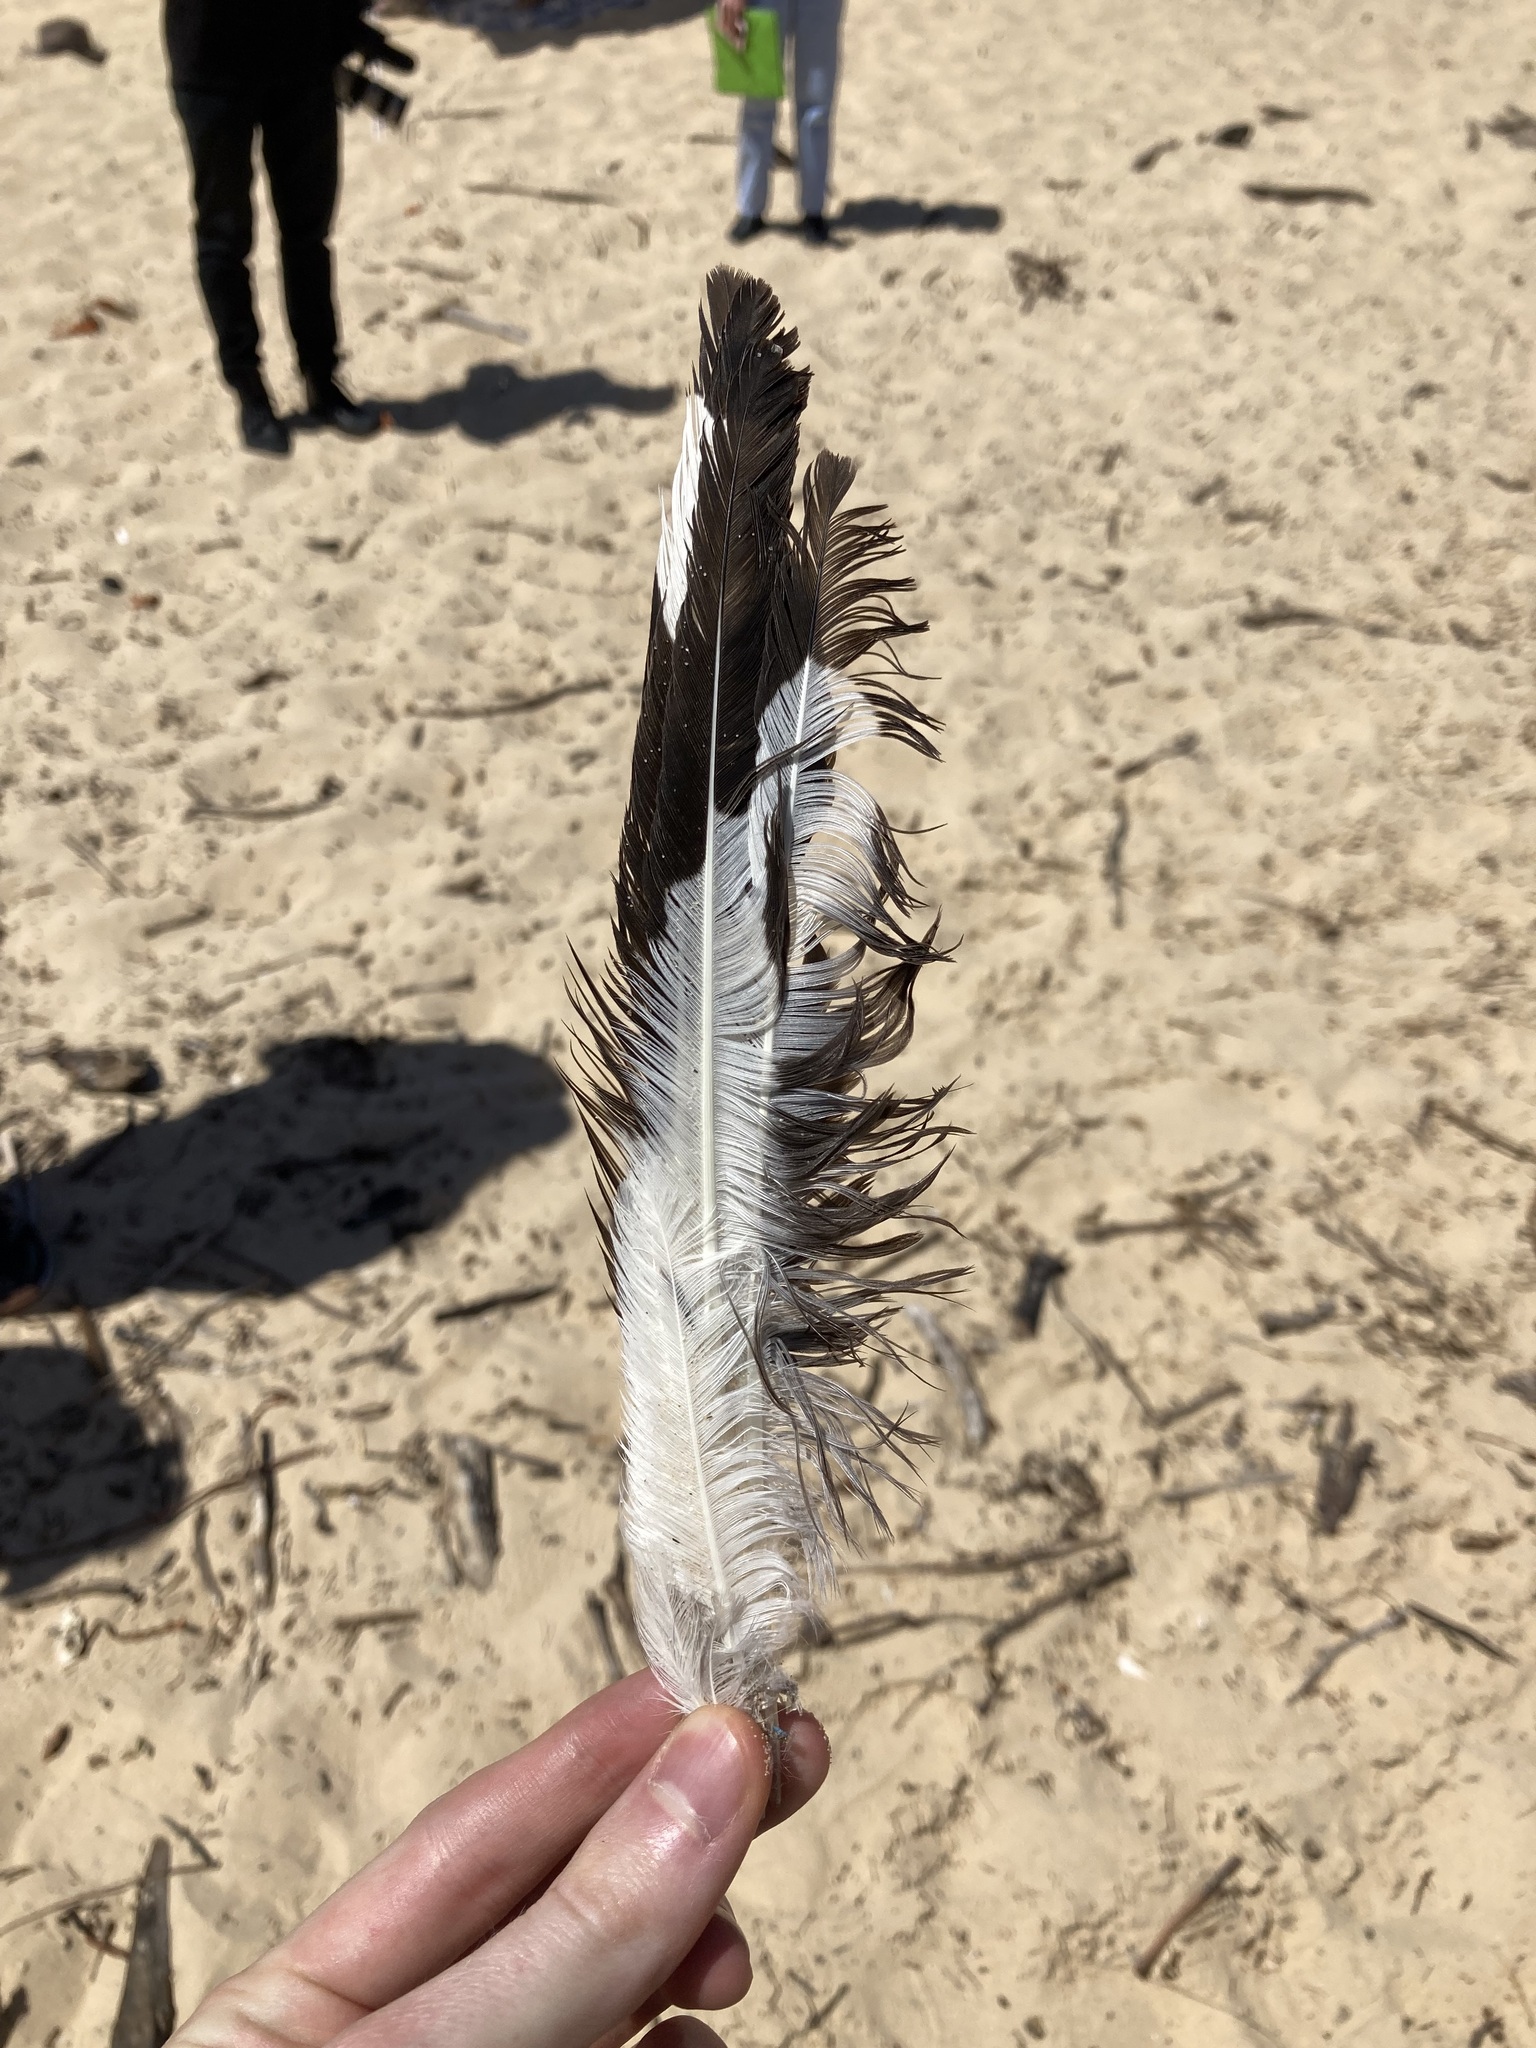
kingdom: Animalia
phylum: Chordata
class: Aves
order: Charadriiformes
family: Laridae
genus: Chroicocephalus
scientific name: Chroicocephalus novaehollandiae
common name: Silver gull
